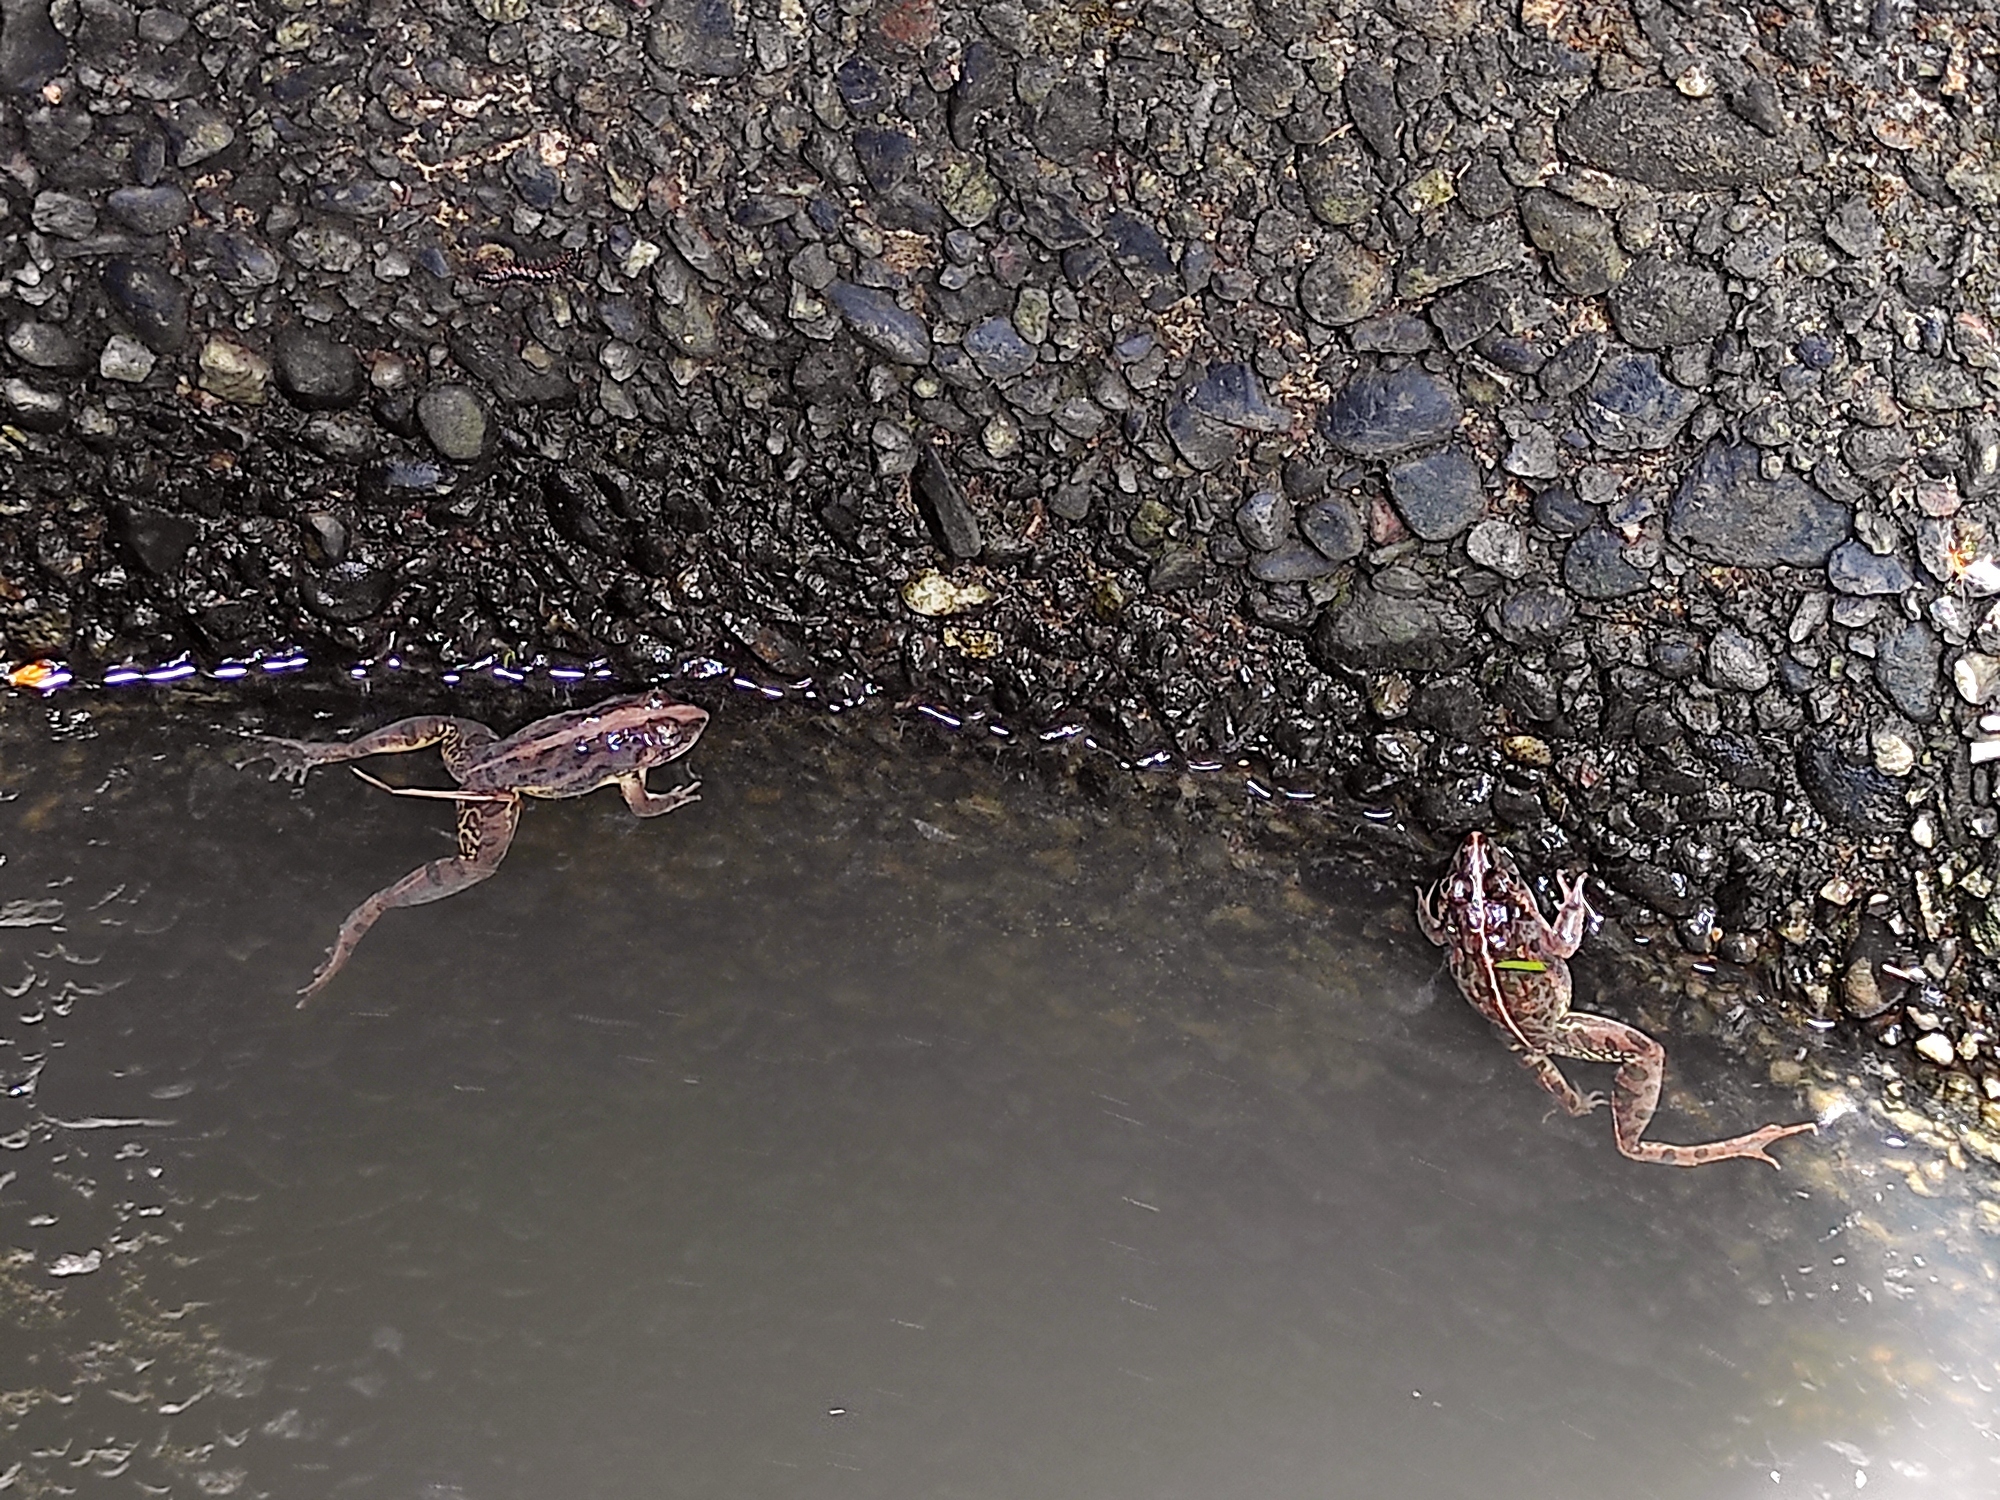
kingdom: Animalia
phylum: Chordata
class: Amphibia
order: Anura
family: Dicroglossidae
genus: Fejervarya
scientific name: Fejervarya limnocharis
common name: Asian grass frog/common pond frog/field frog/grass frog/indian rice frog
